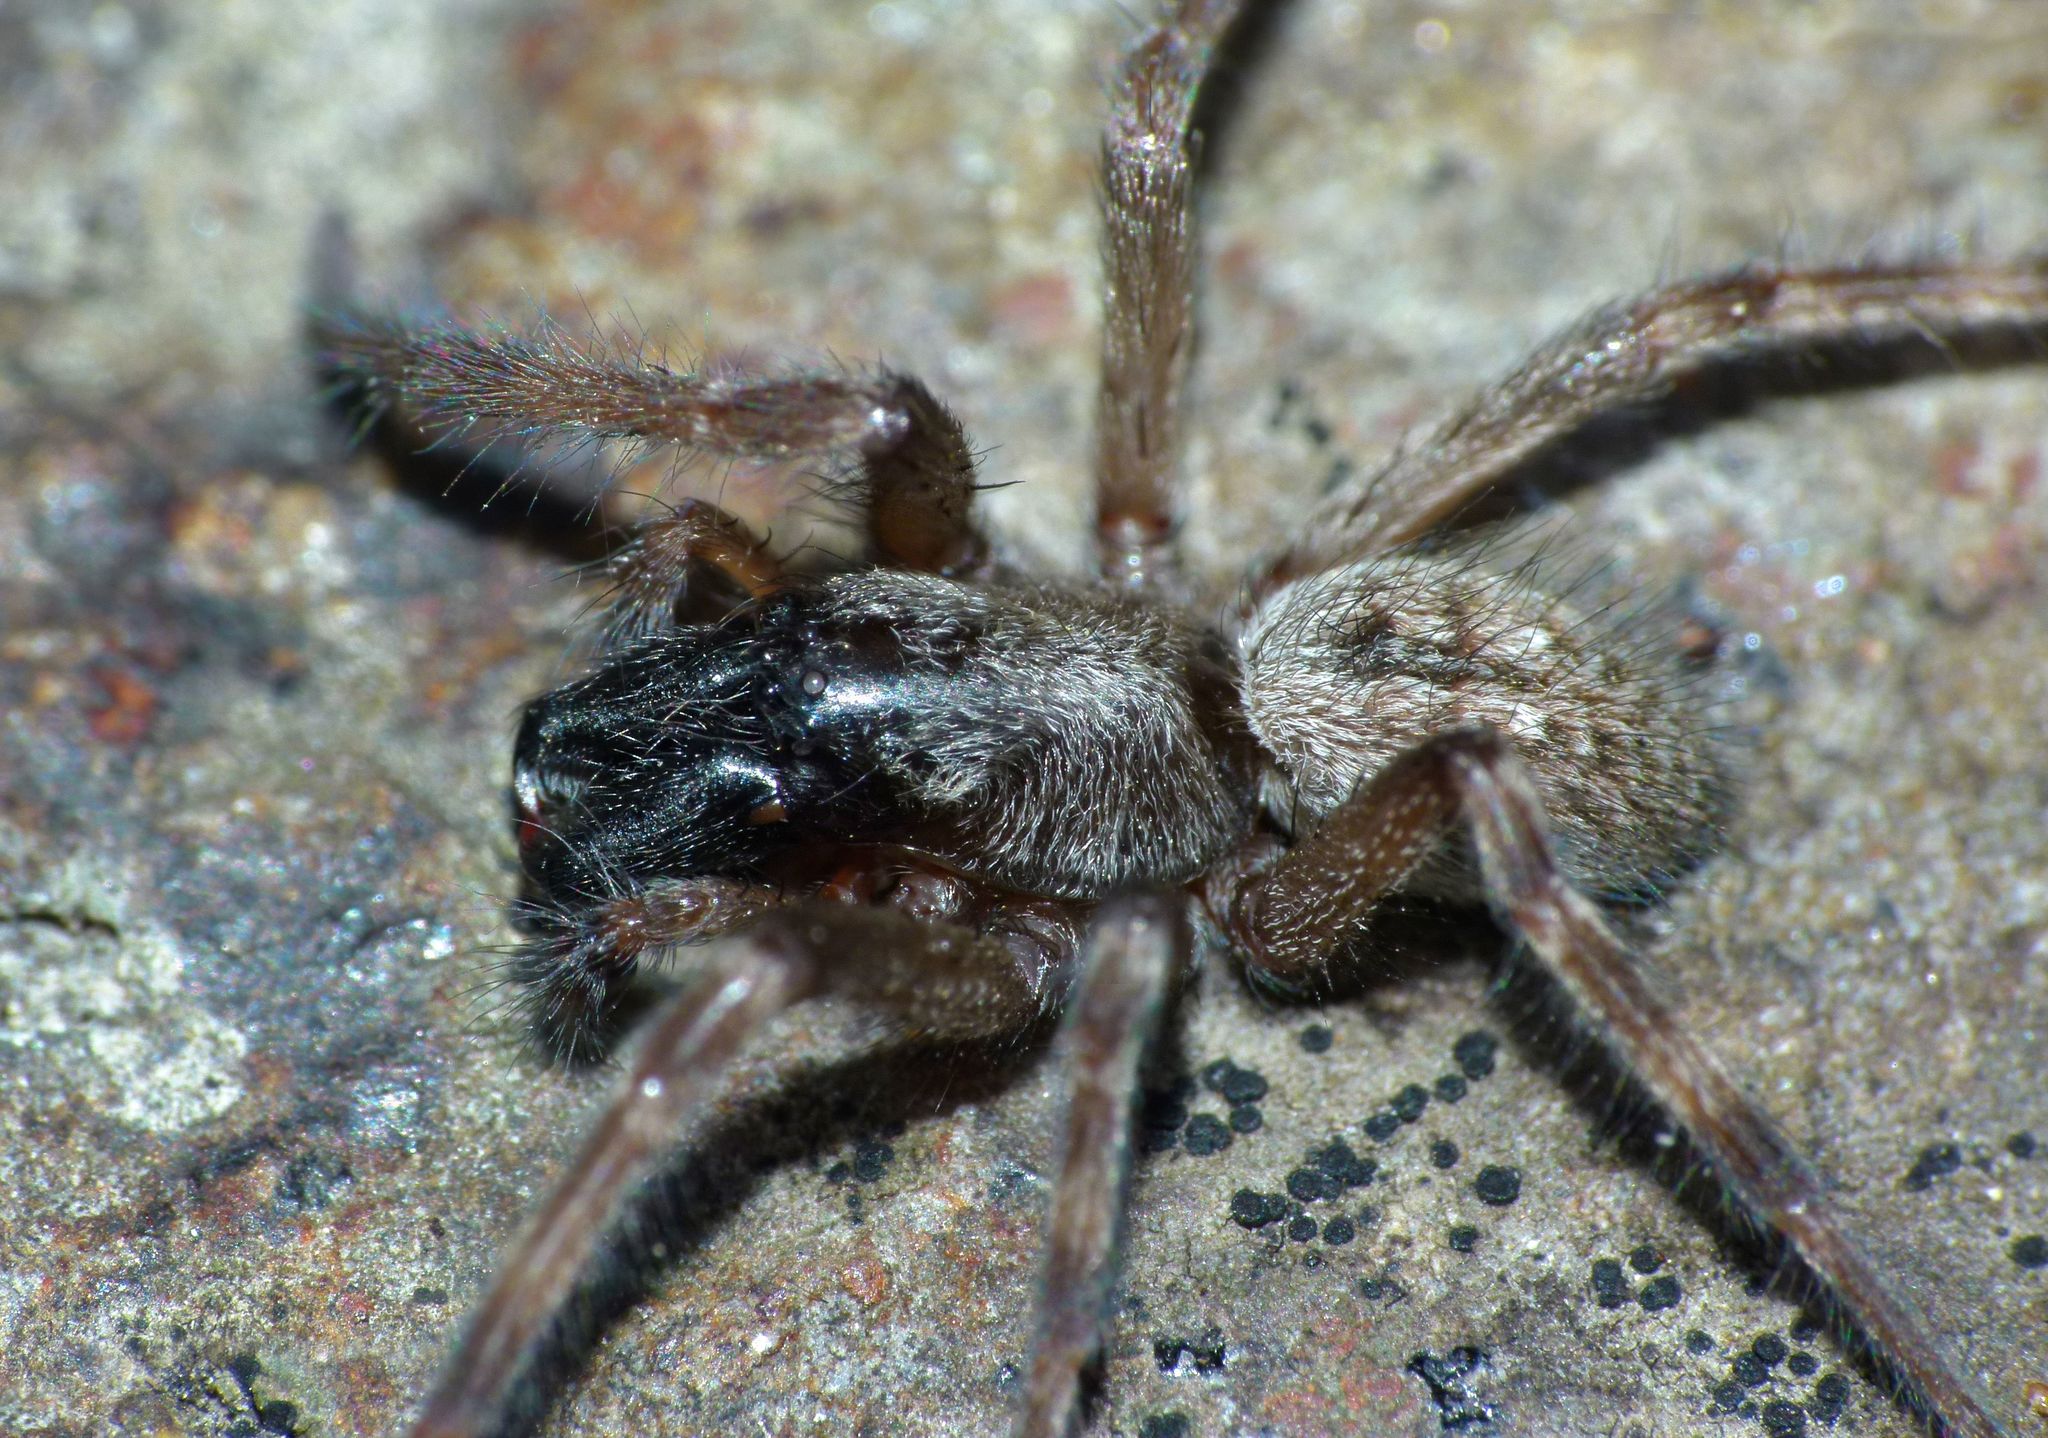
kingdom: Animalia
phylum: Arthropoda
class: Arachnida
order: Araneae
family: Desidae
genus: Badumna
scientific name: Badumna longinqua
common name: Gray house spider
